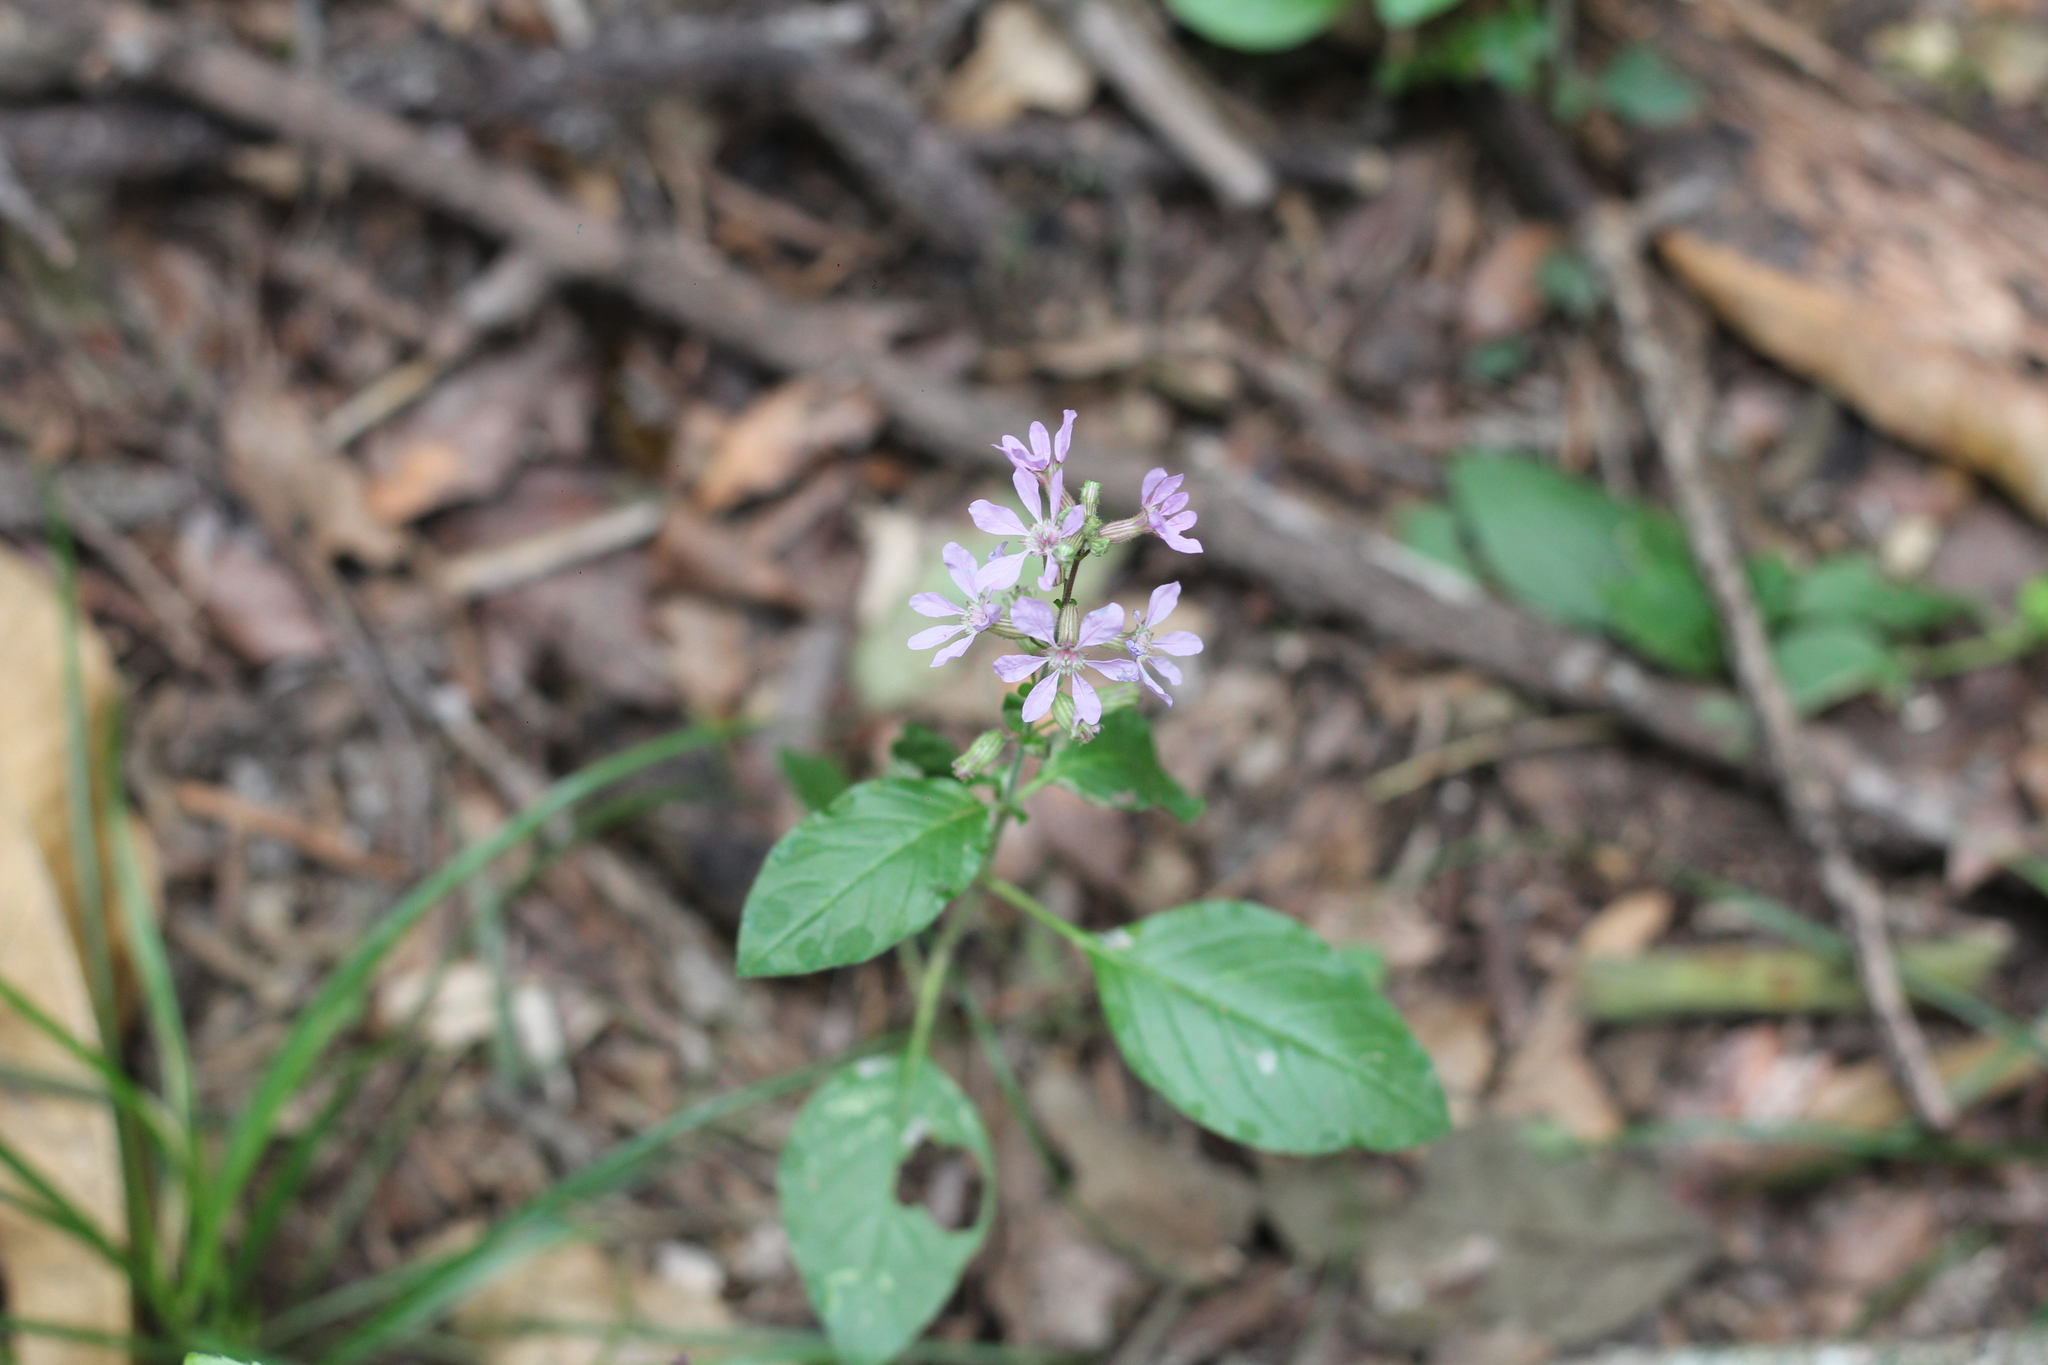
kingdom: Plantae
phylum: Tracheophyta
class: Magnoliopsida
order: Myrtales
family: Lythraceae
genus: Cuphea
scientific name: Cuphea racemosa
